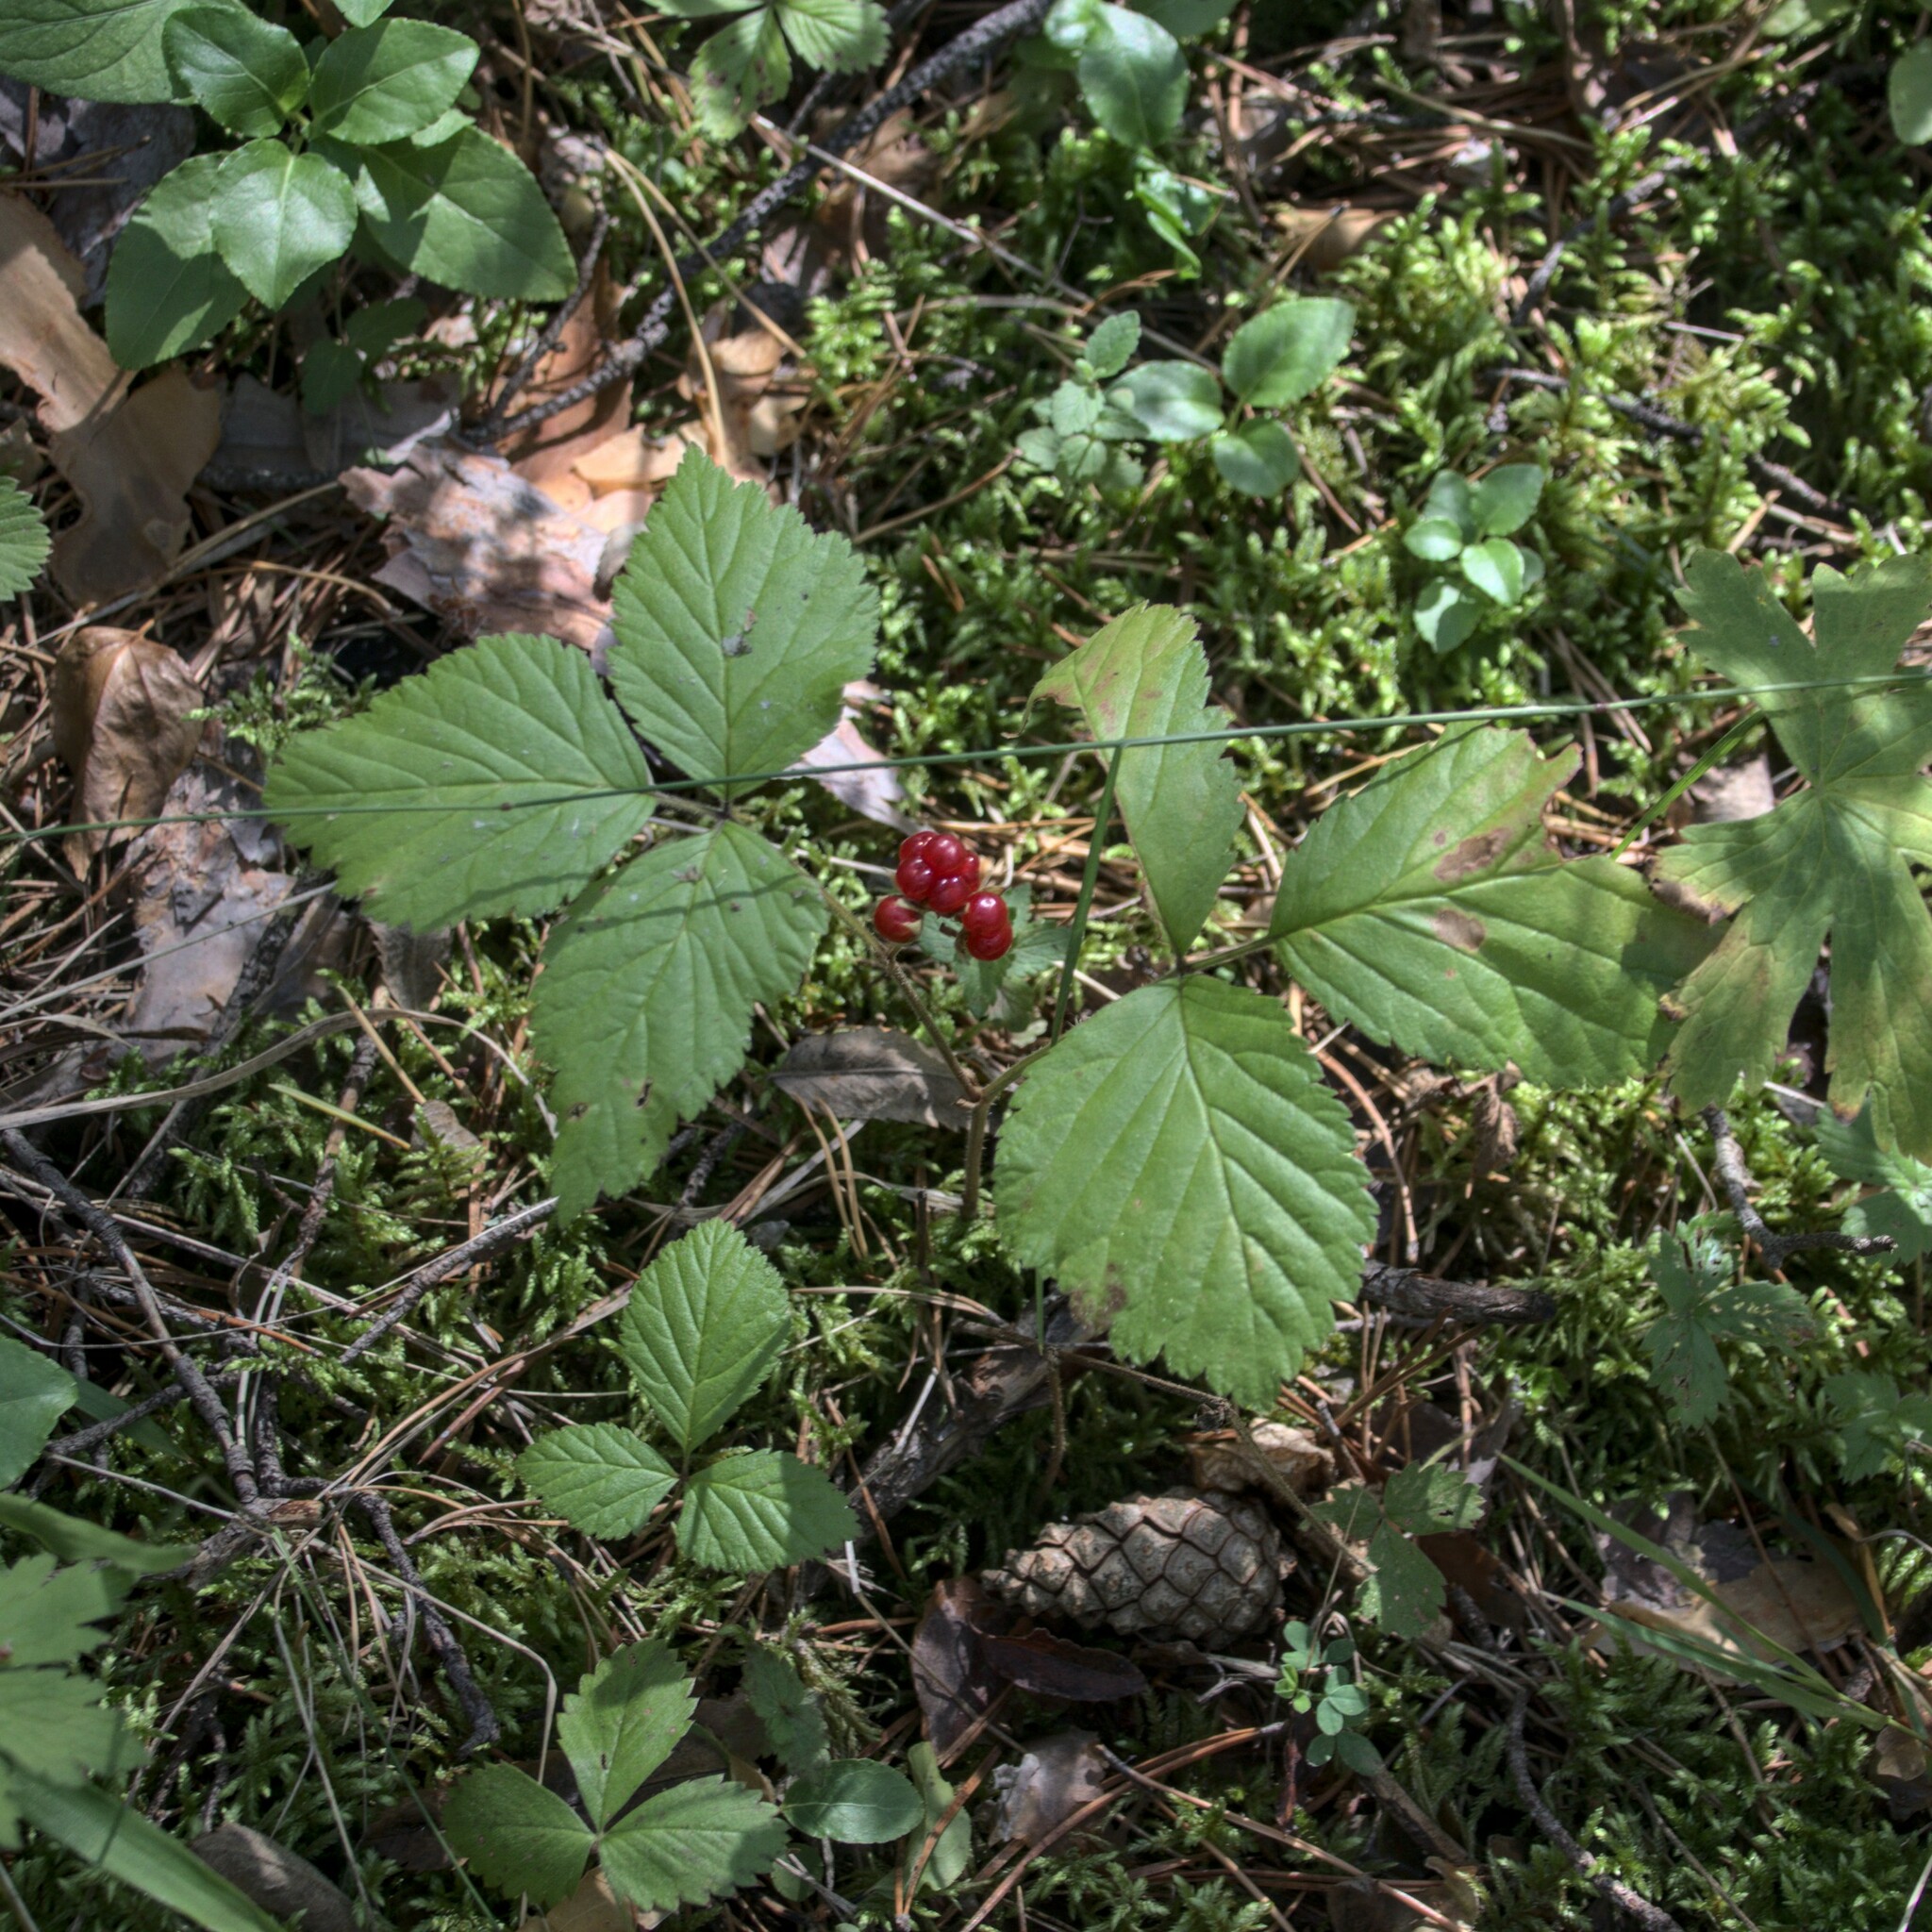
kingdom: Plantae
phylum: Tracheophyta
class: Magnoliopsida
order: Rosales
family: Rosaceae
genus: Rubus
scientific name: Rubus saxatilis
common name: Stone bramble
